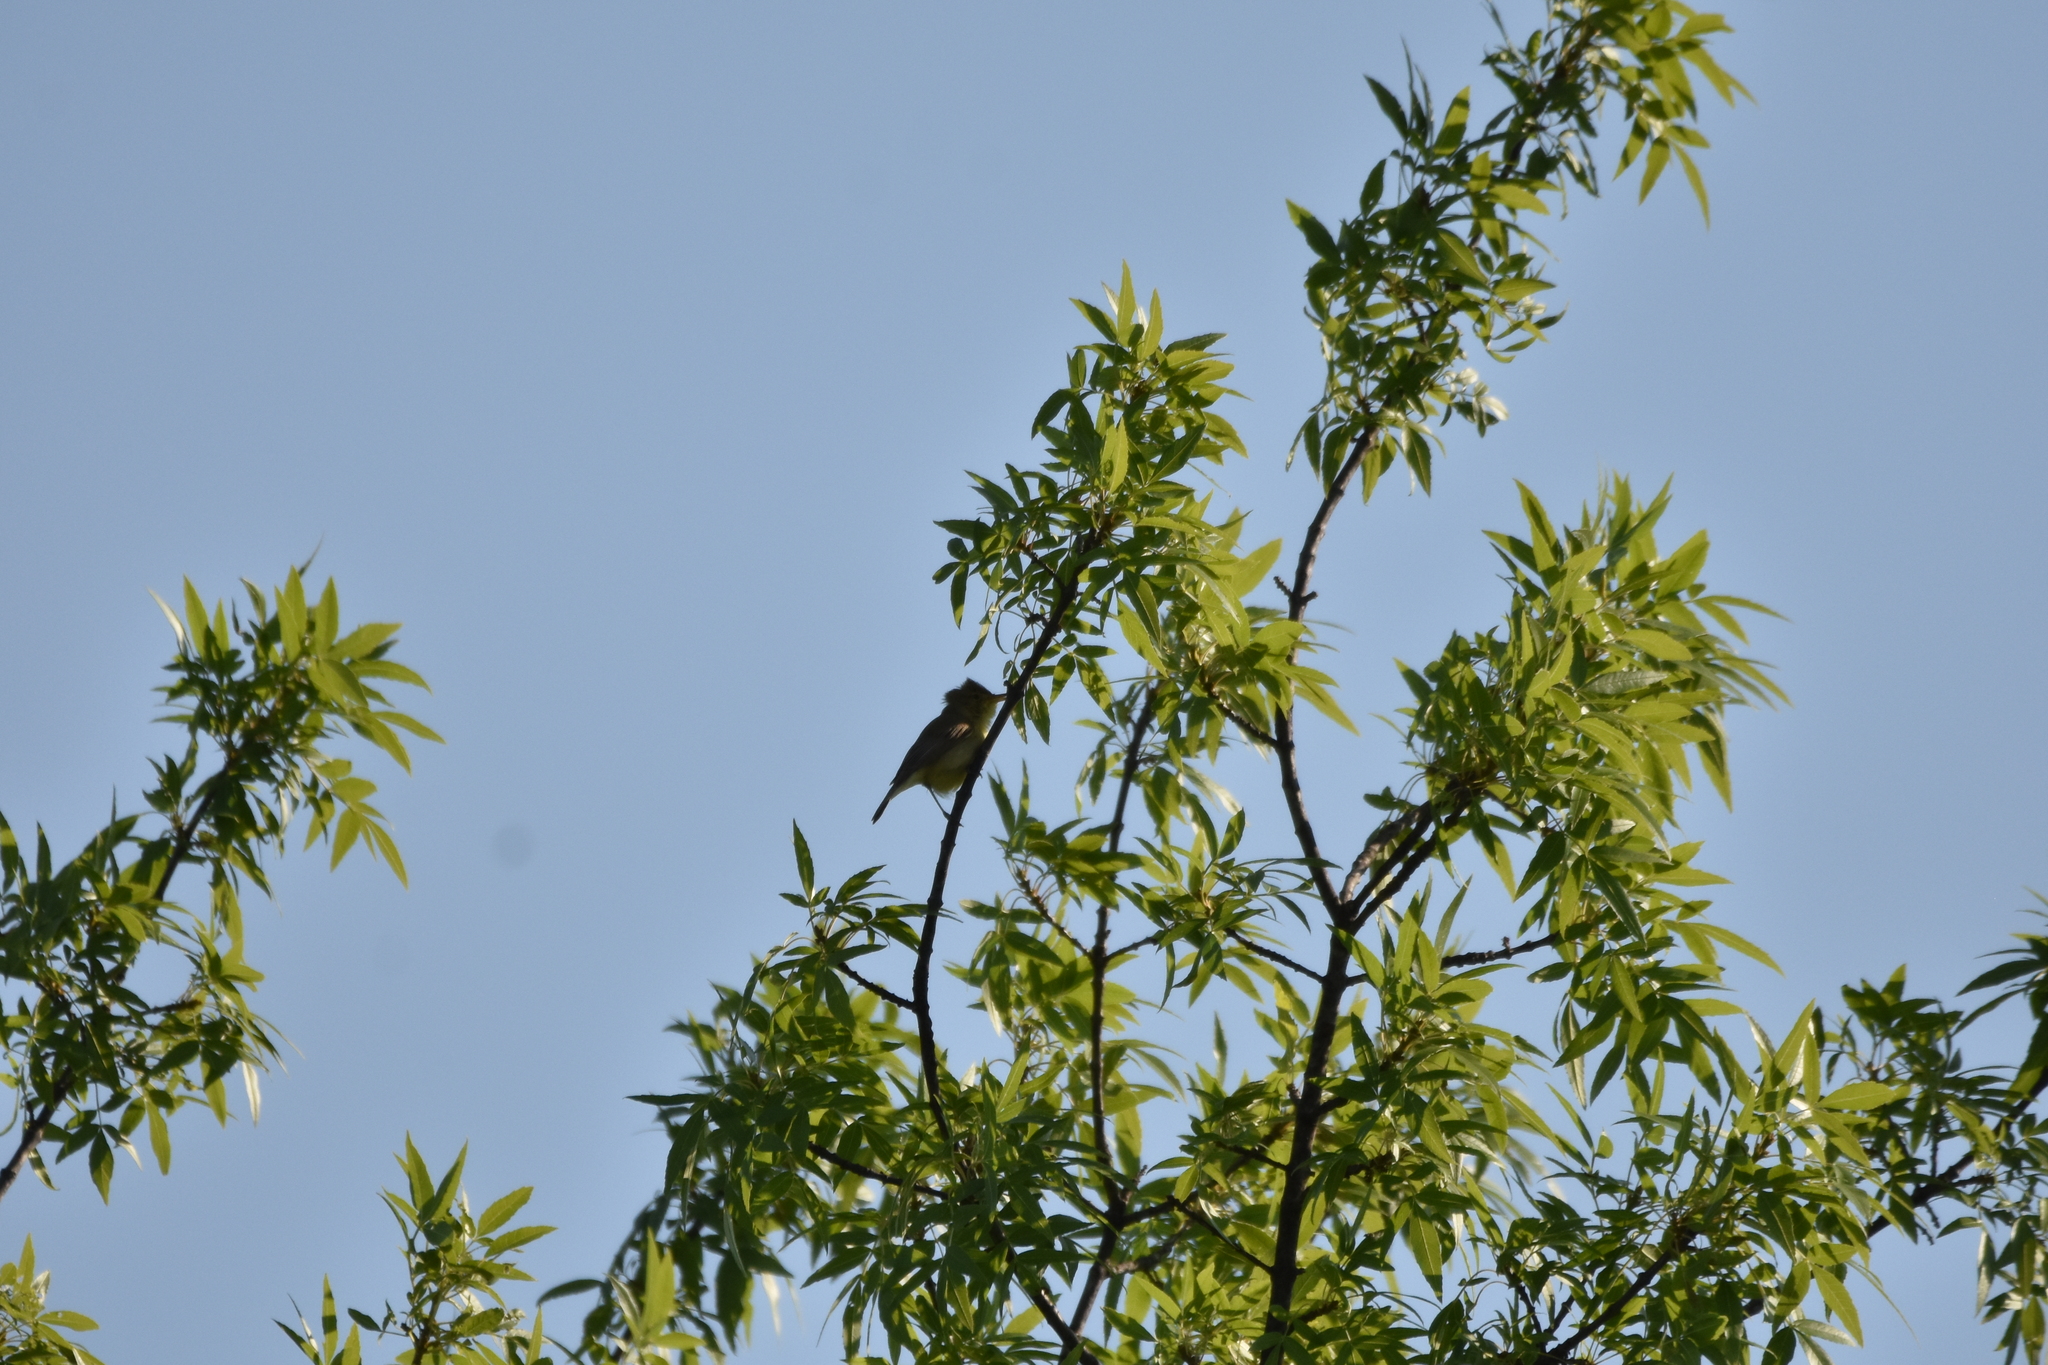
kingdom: Animalia
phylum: Chordata
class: Aves
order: Passeriformes
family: Acrocephalidae
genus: Hippolais
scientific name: Hippolais polyglotta
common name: Melodious warbler
